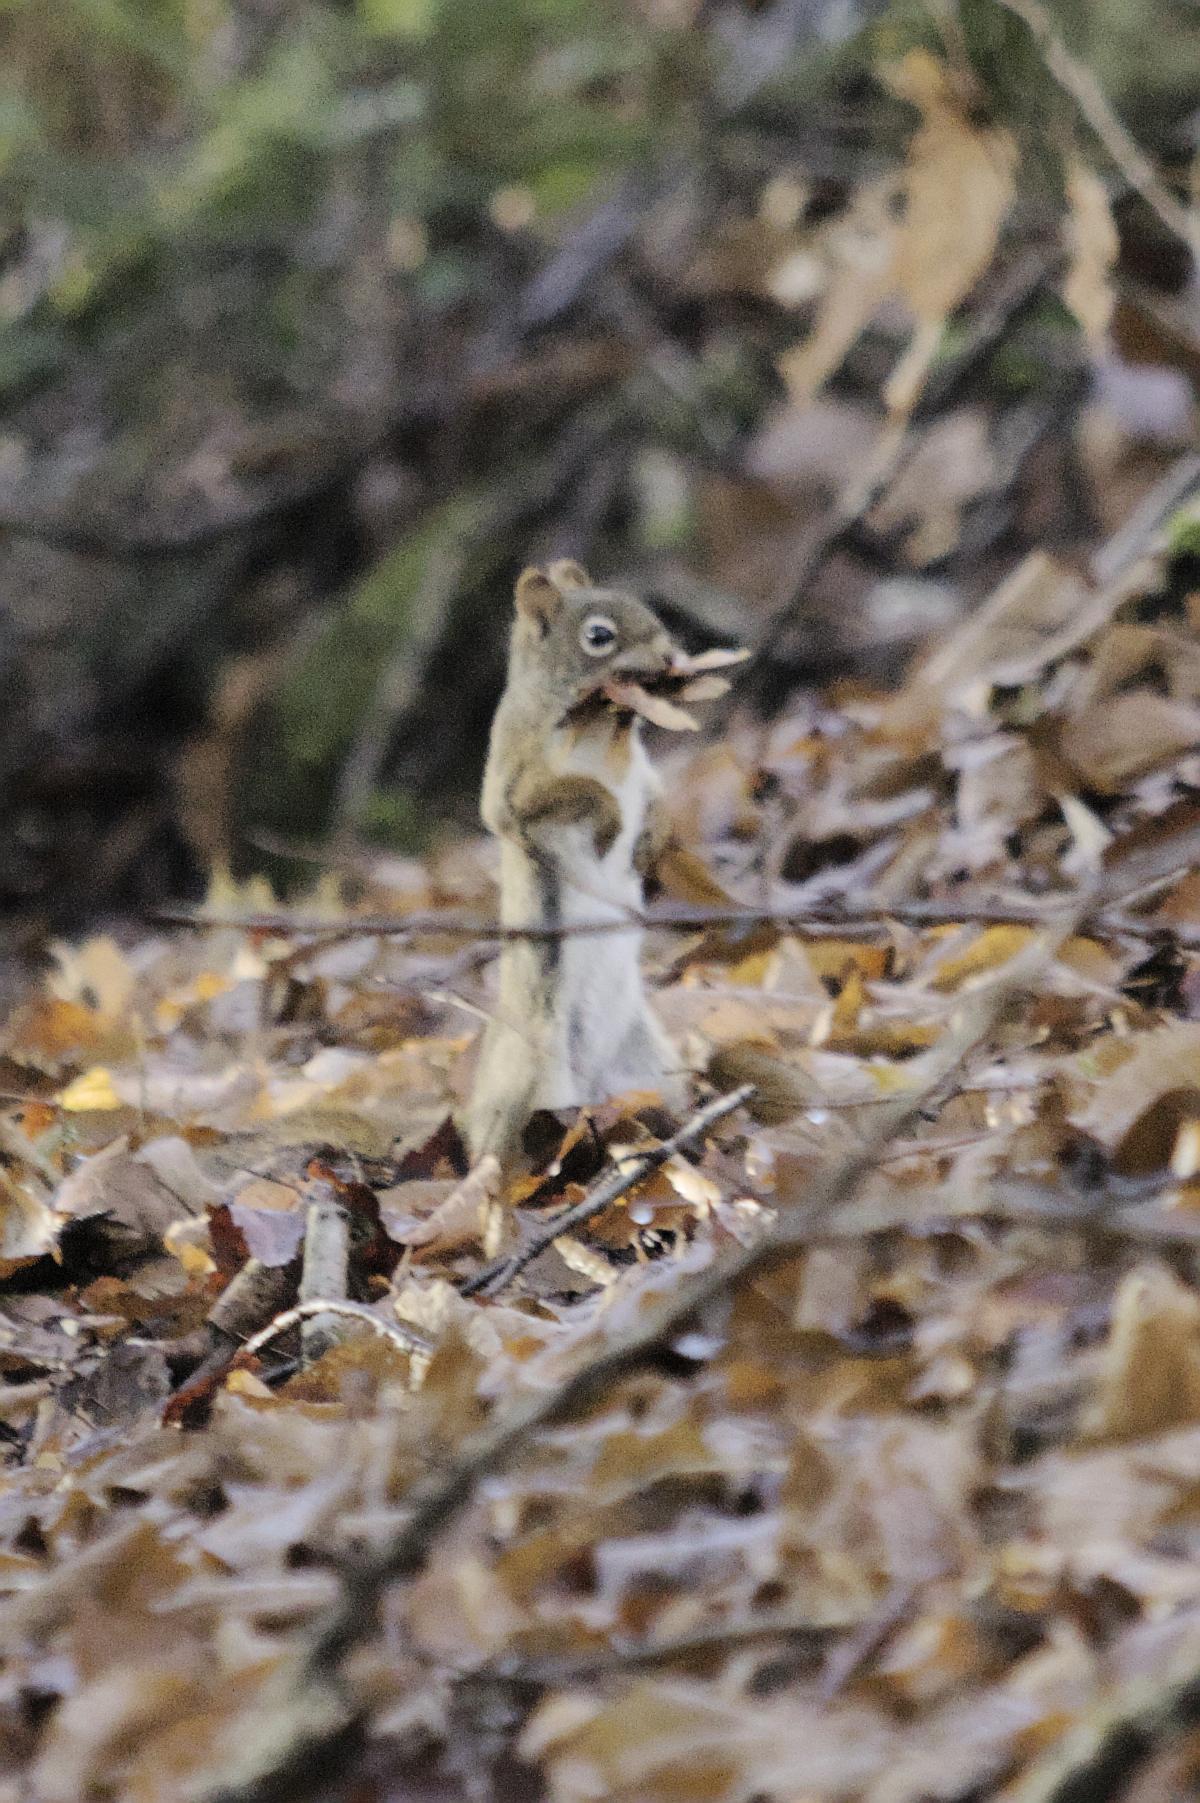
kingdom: Animalia
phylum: Chordata
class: Mammalia
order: Rodentia
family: Sciuridae
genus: Tamiasciurus
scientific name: Tamiasciurus hudsonicus
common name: Red squirrel
